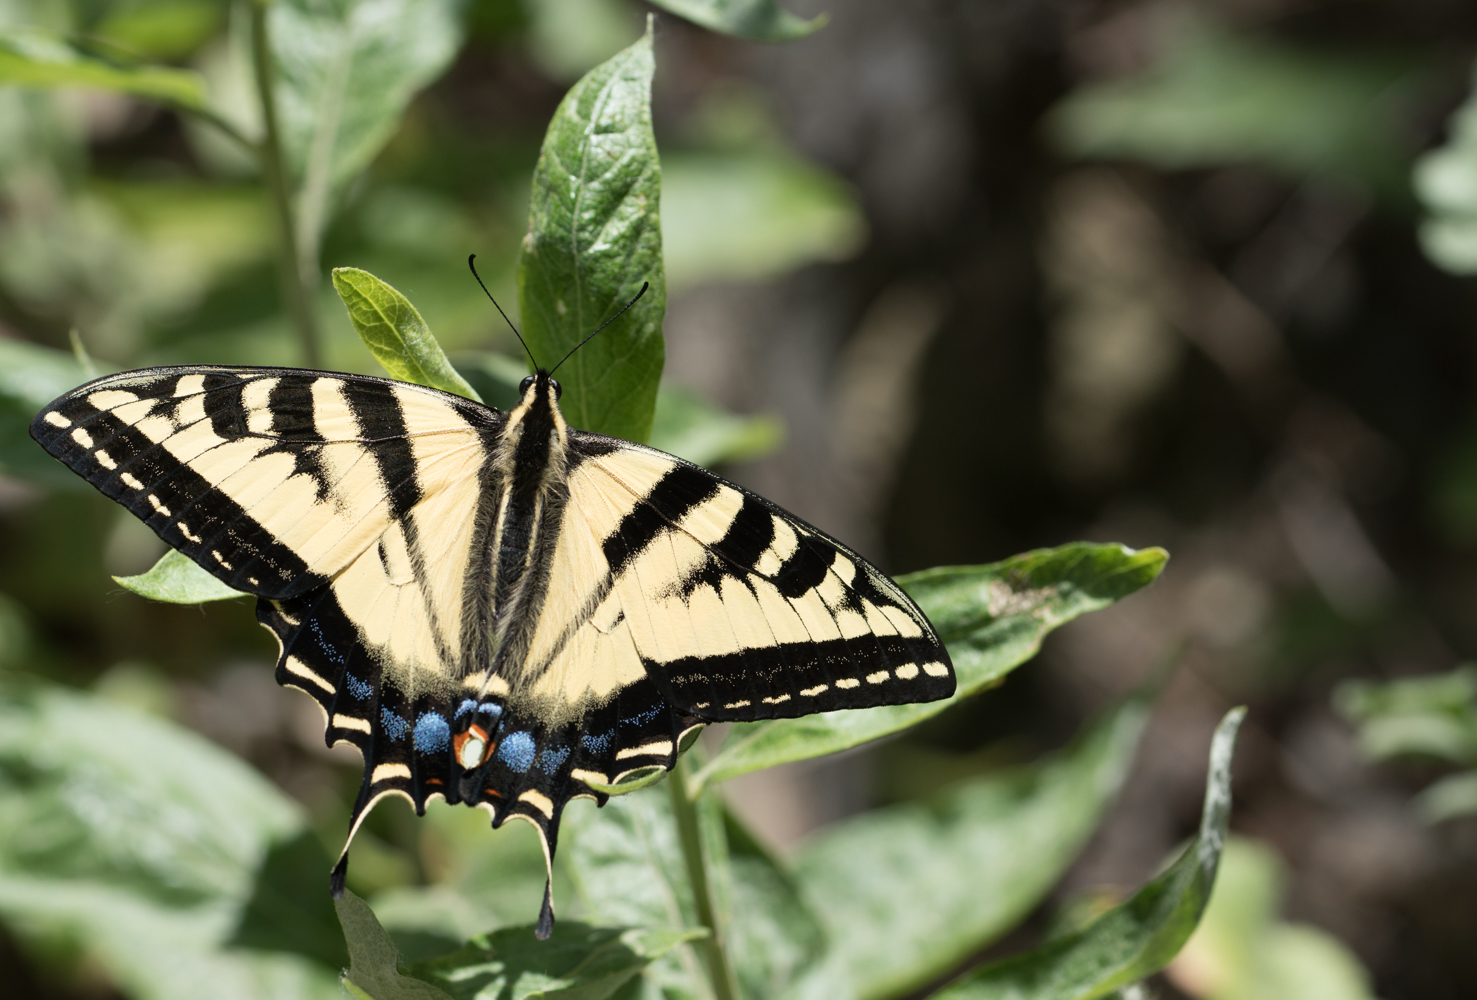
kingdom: Animalia
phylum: Arthropoda
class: Insecta
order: Lepidoptera
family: Papilionidae
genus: Papilio
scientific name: Papilio rutulus
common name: Western tiger swallowtail
